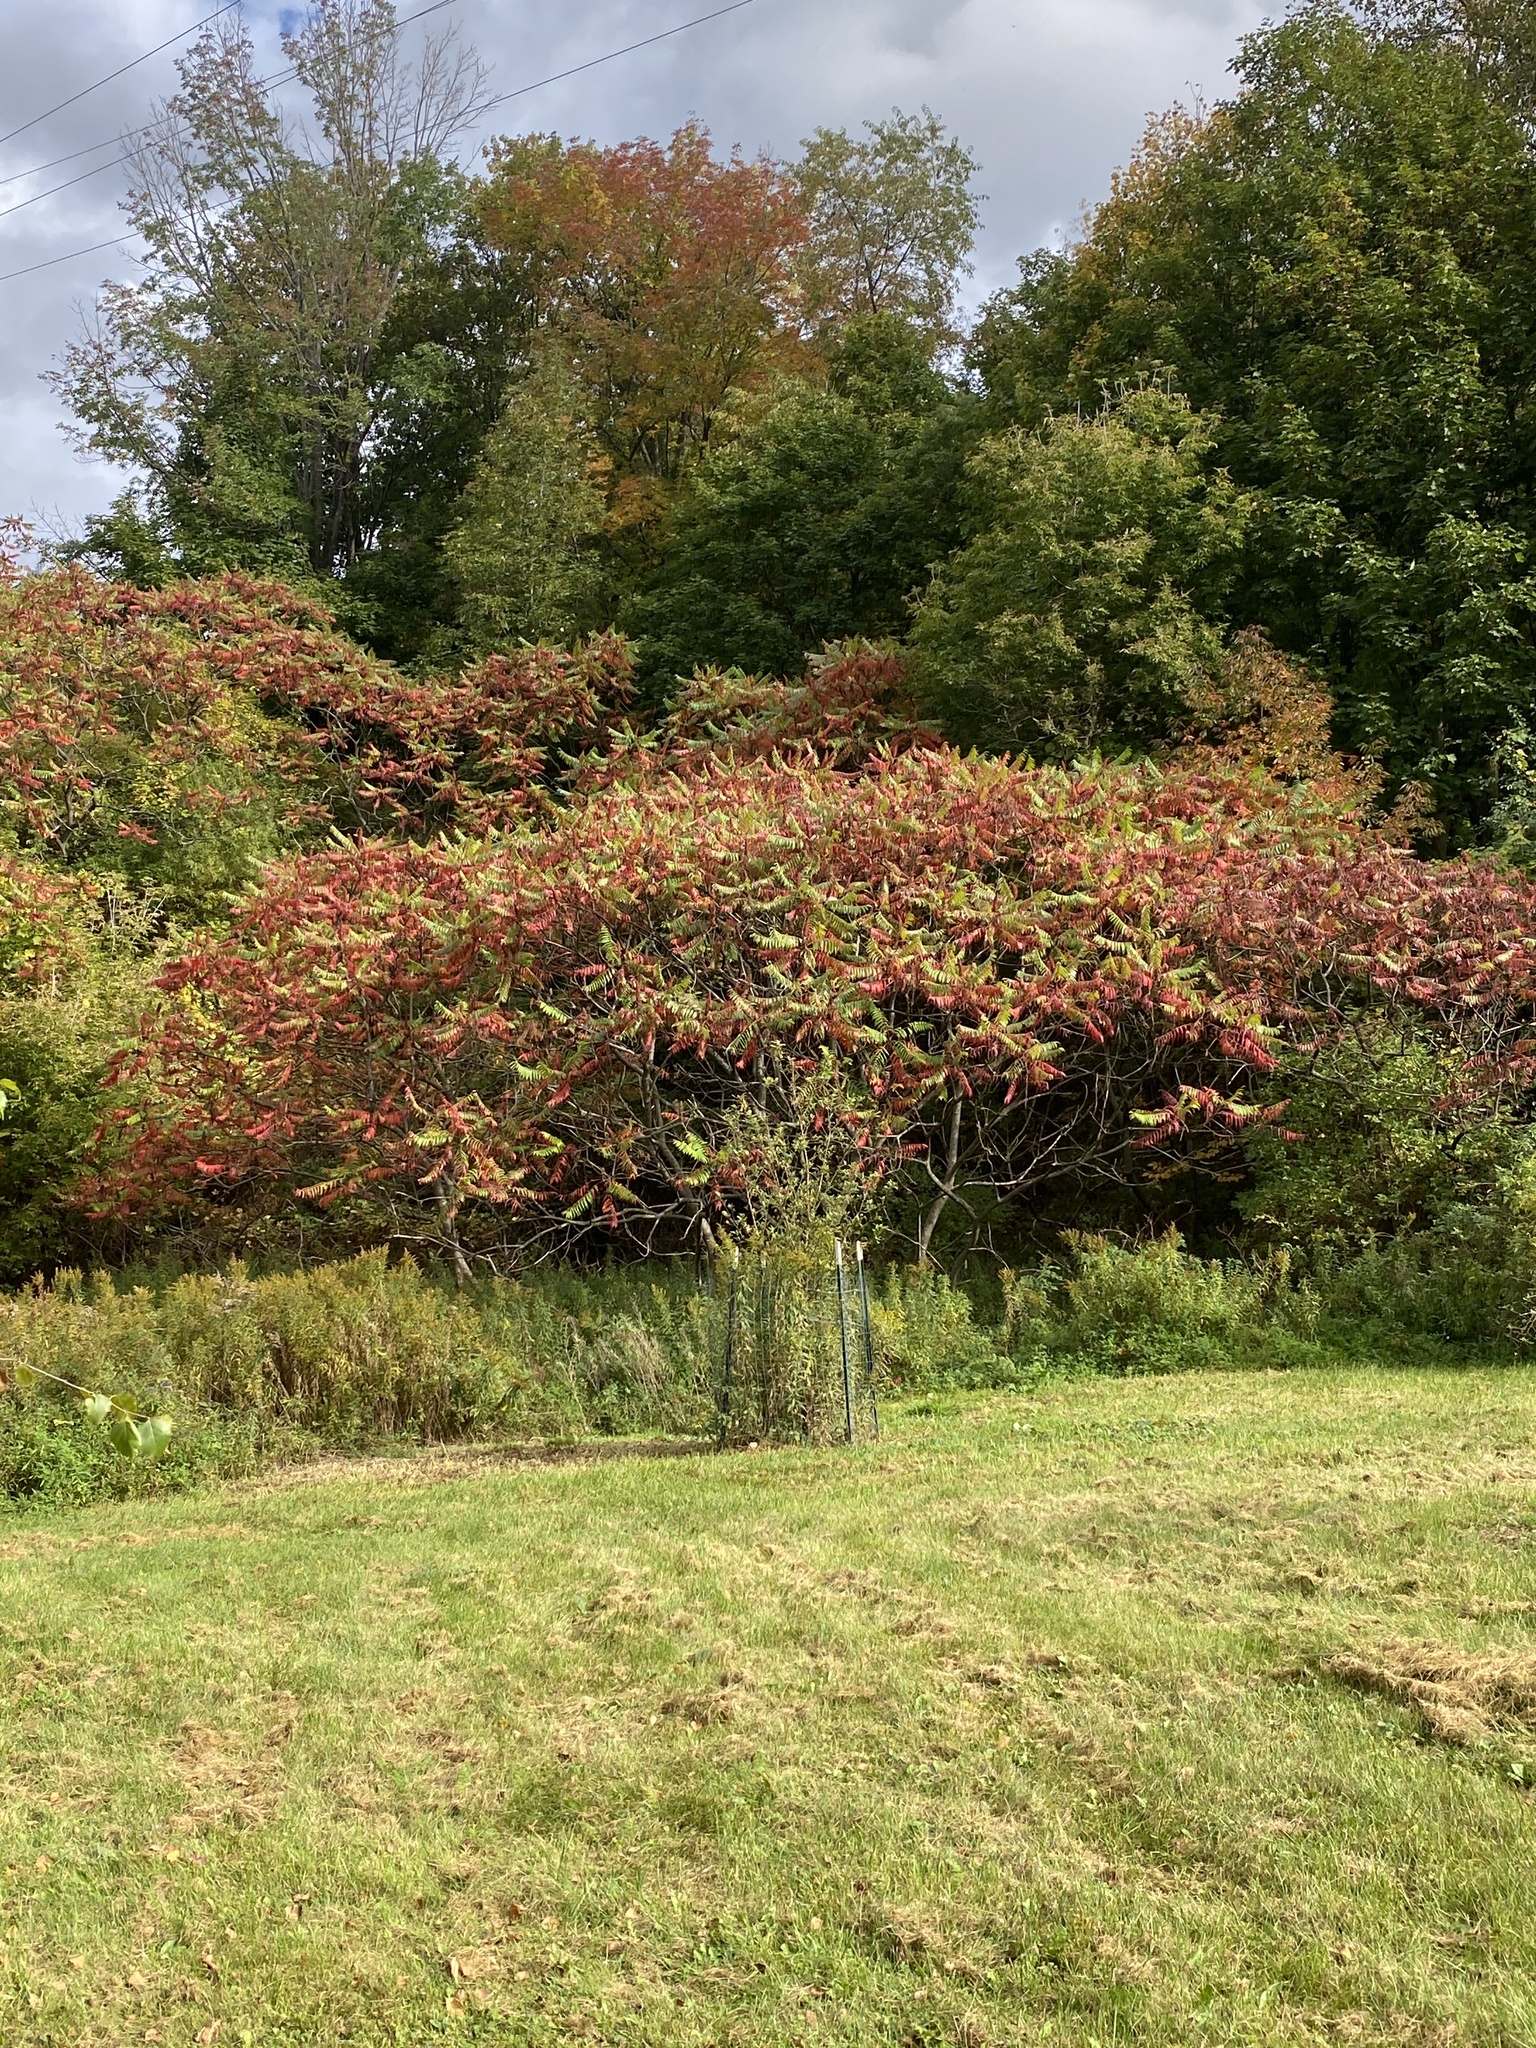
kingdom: Plantae
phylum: Tracheophyta
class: Magnoliopsida
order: Sapindales
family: Anacardiaceae
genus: Rhus
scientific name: Rhus typhina
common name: Staghorn sumac
